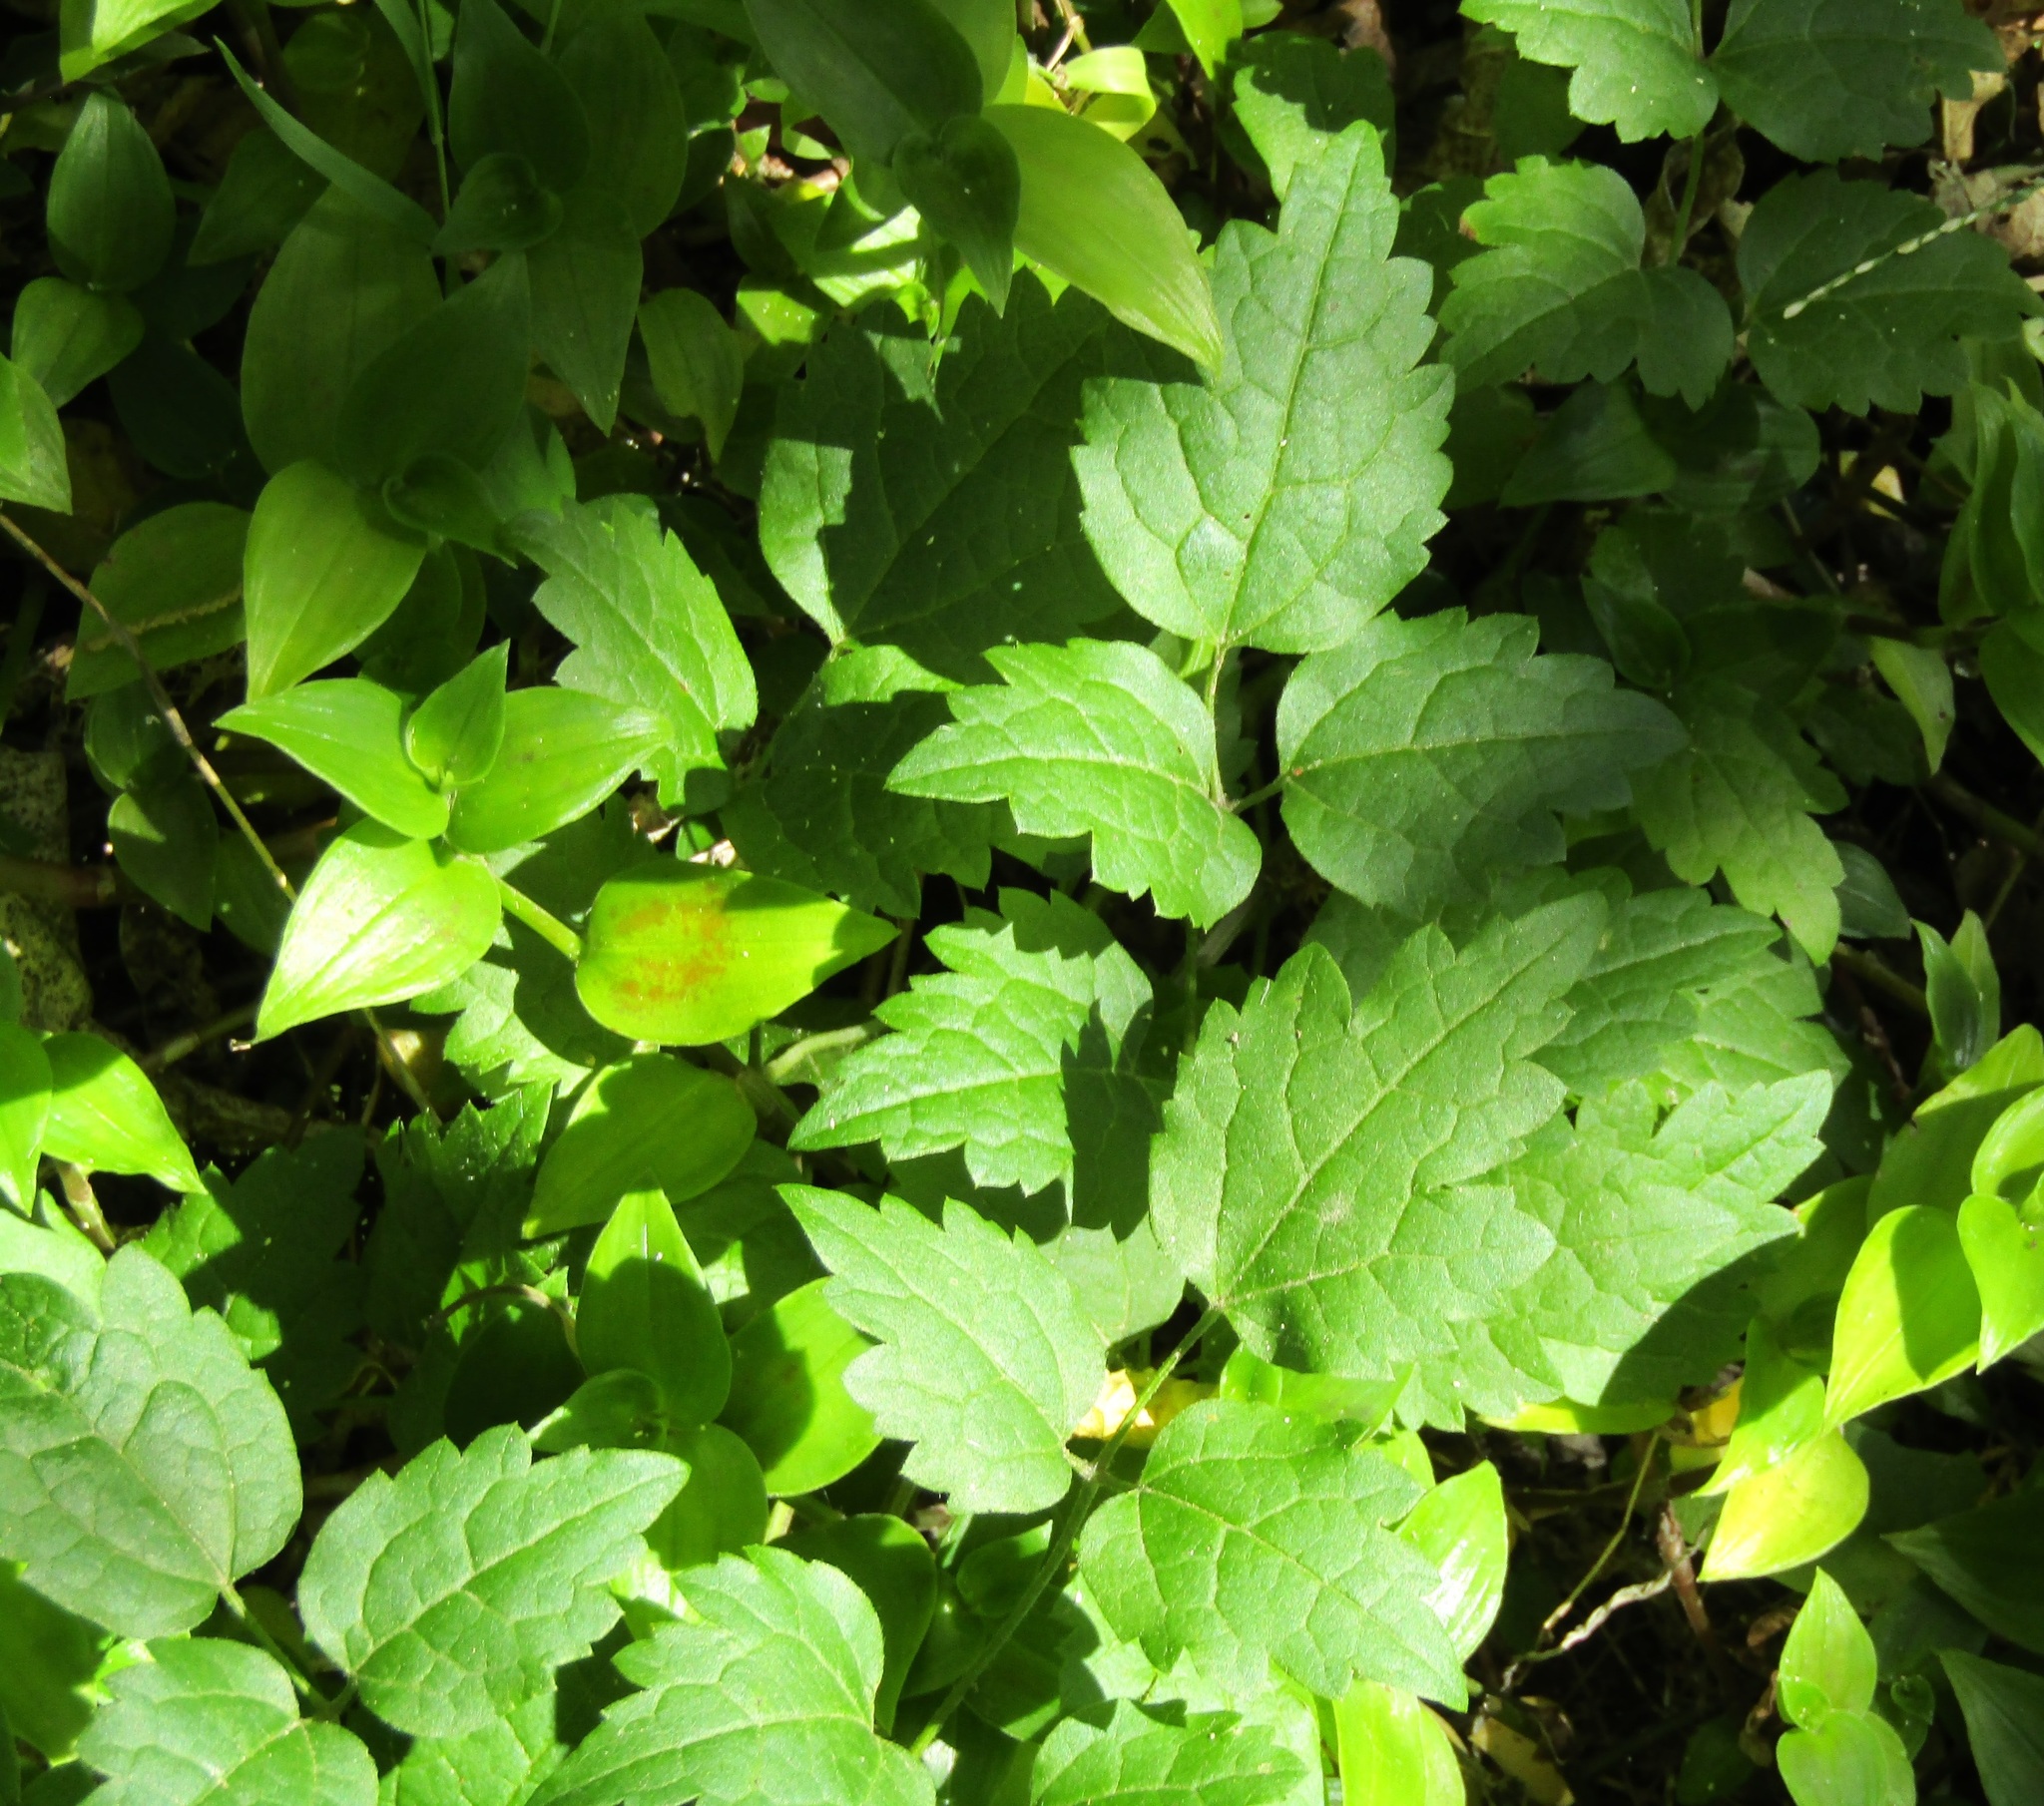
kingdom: Plantae
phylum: Tracheophyta
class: Magnoliopsida
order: Ranunculales
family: Ranunculaceae
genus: Clematis
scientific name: Clematis vitalba
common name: Evergreen clematis
